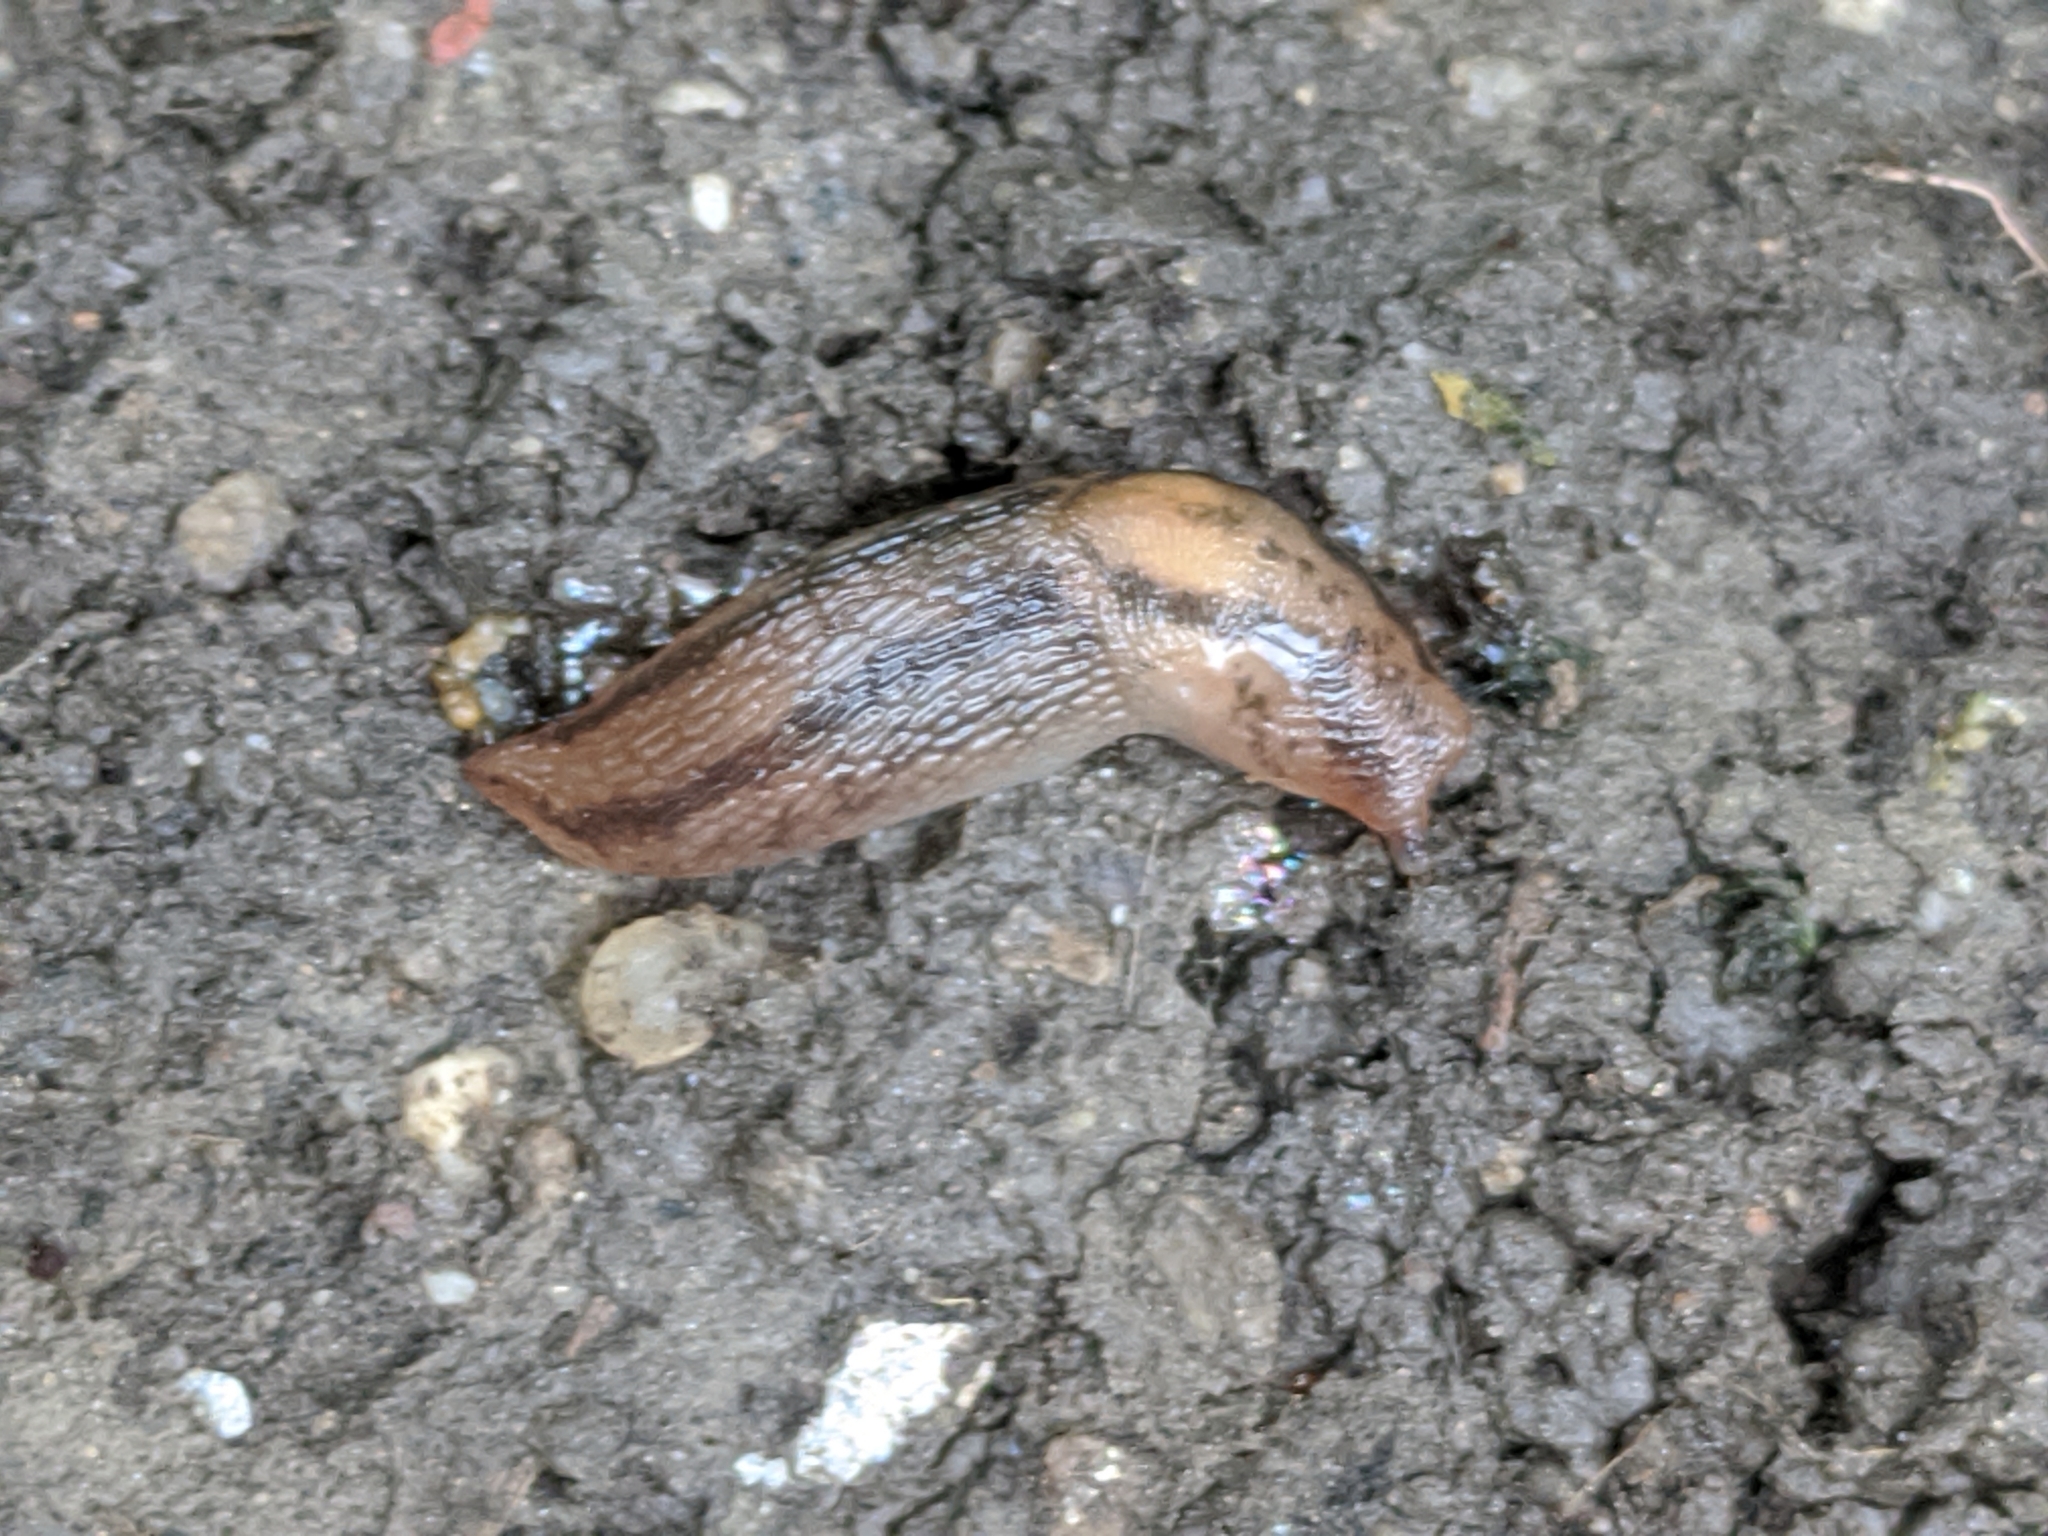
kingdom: Animalia
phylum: Mollusca
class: Gastropoda
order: Stylommatophora
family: Limacidae
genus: Ambigolimax
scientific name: Ambigolimax
